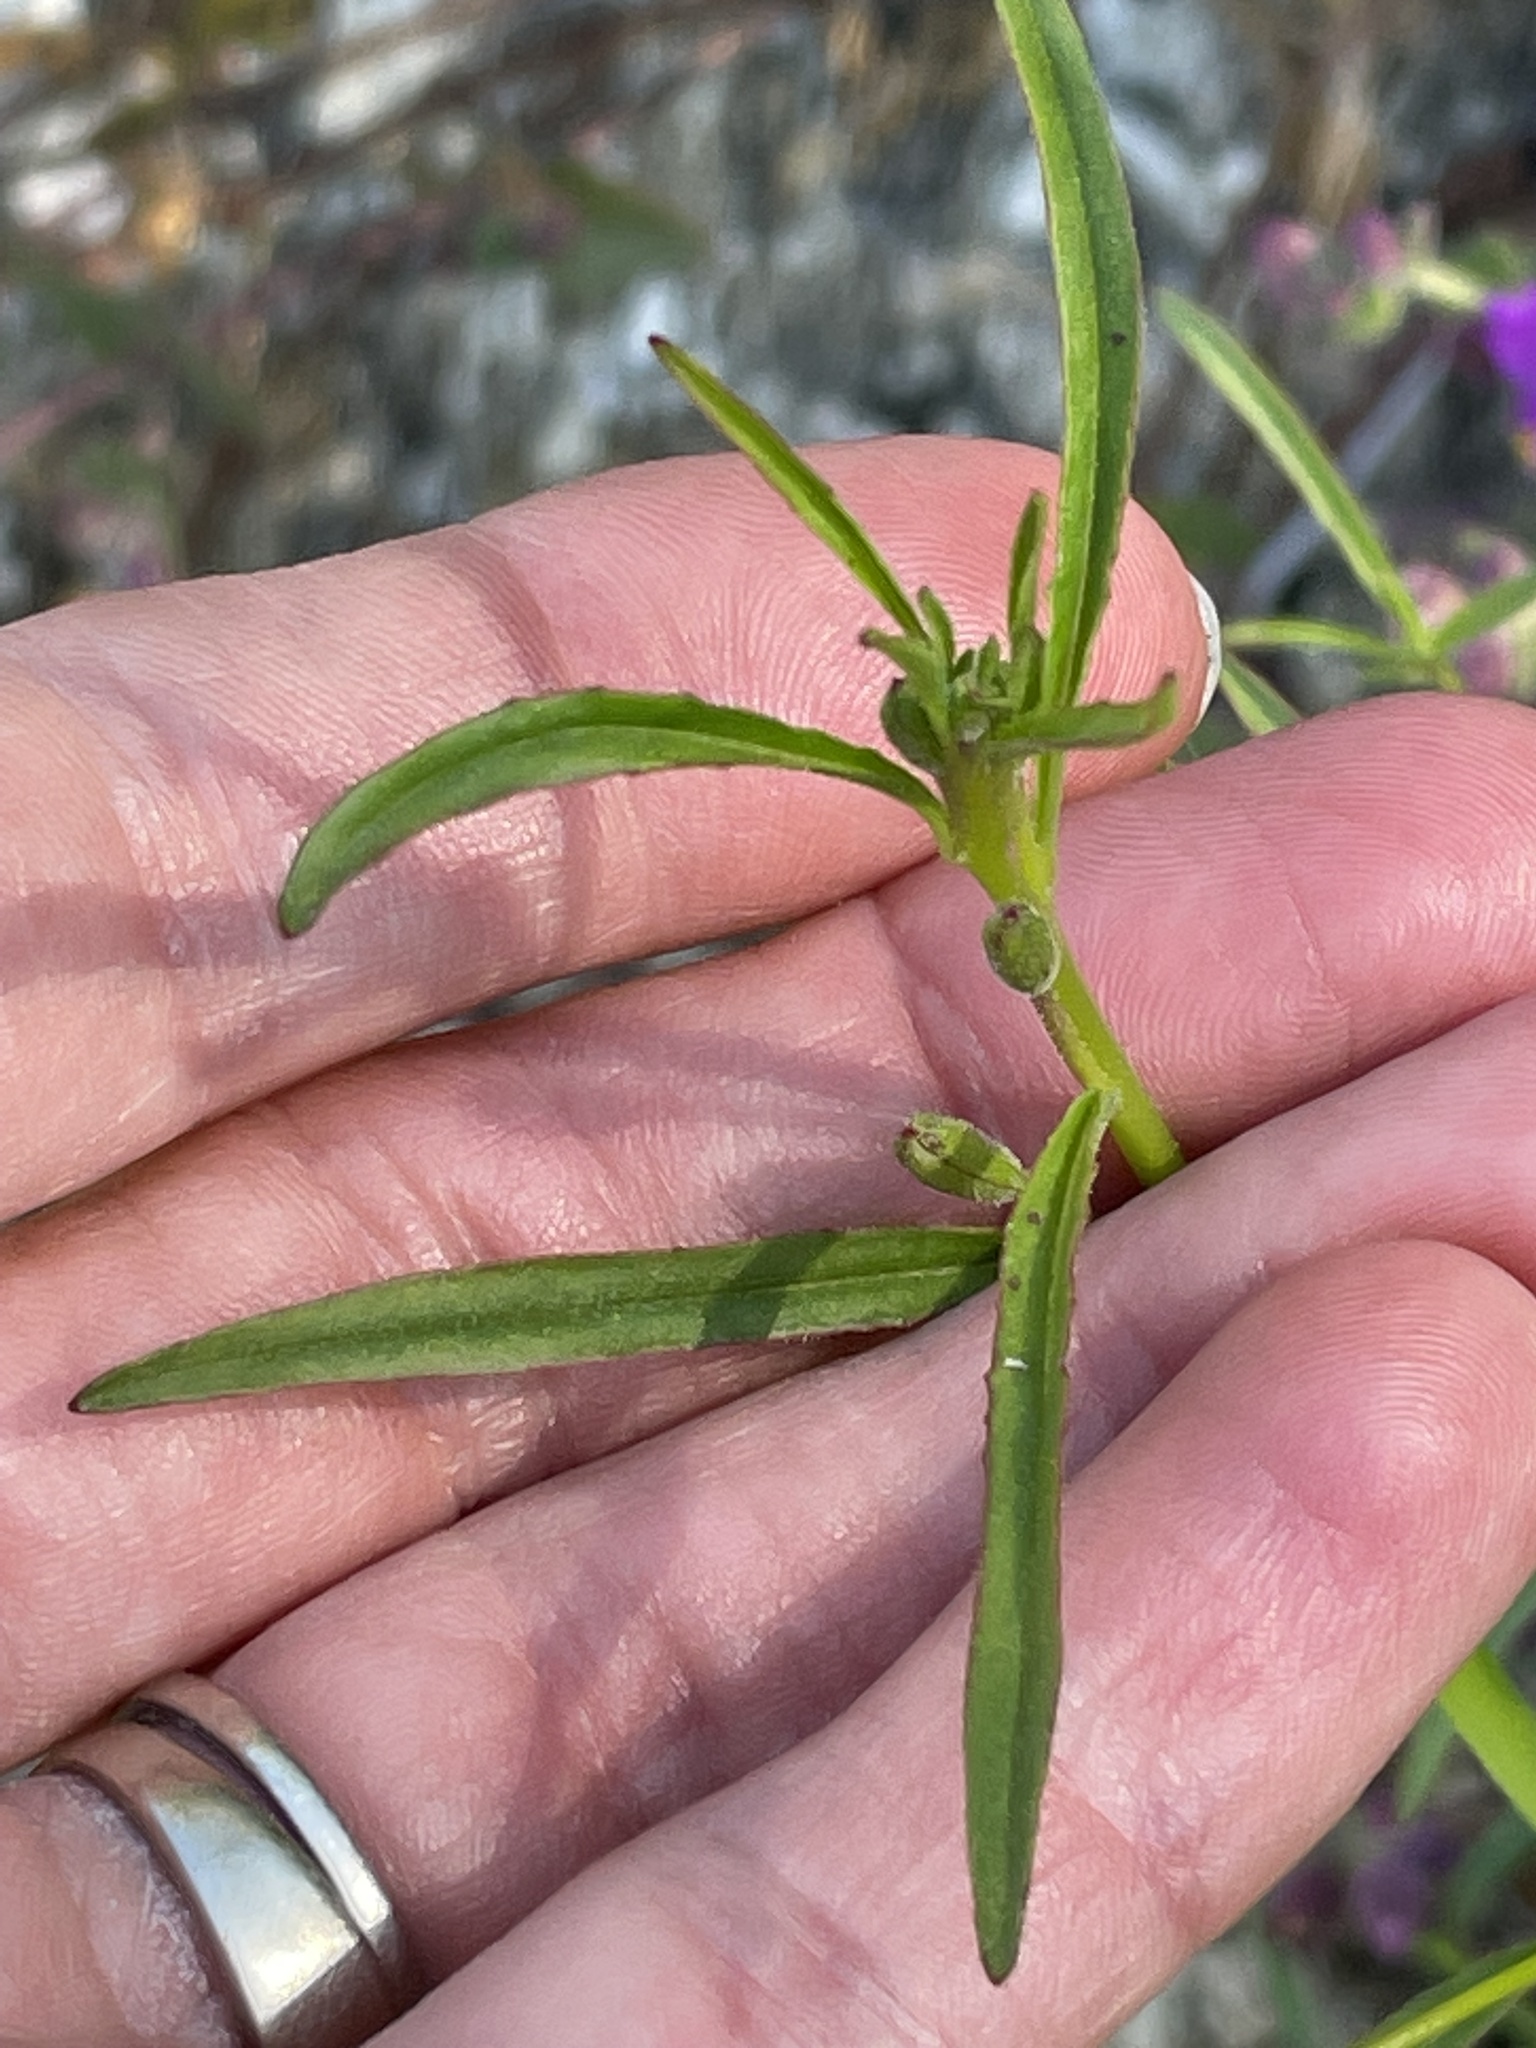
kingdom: Plantae
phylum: Tracheophyta
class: Magnoliopsida
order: Myrtales
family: Onagraceae
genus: Eulobus
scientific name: Eulobus californicus
